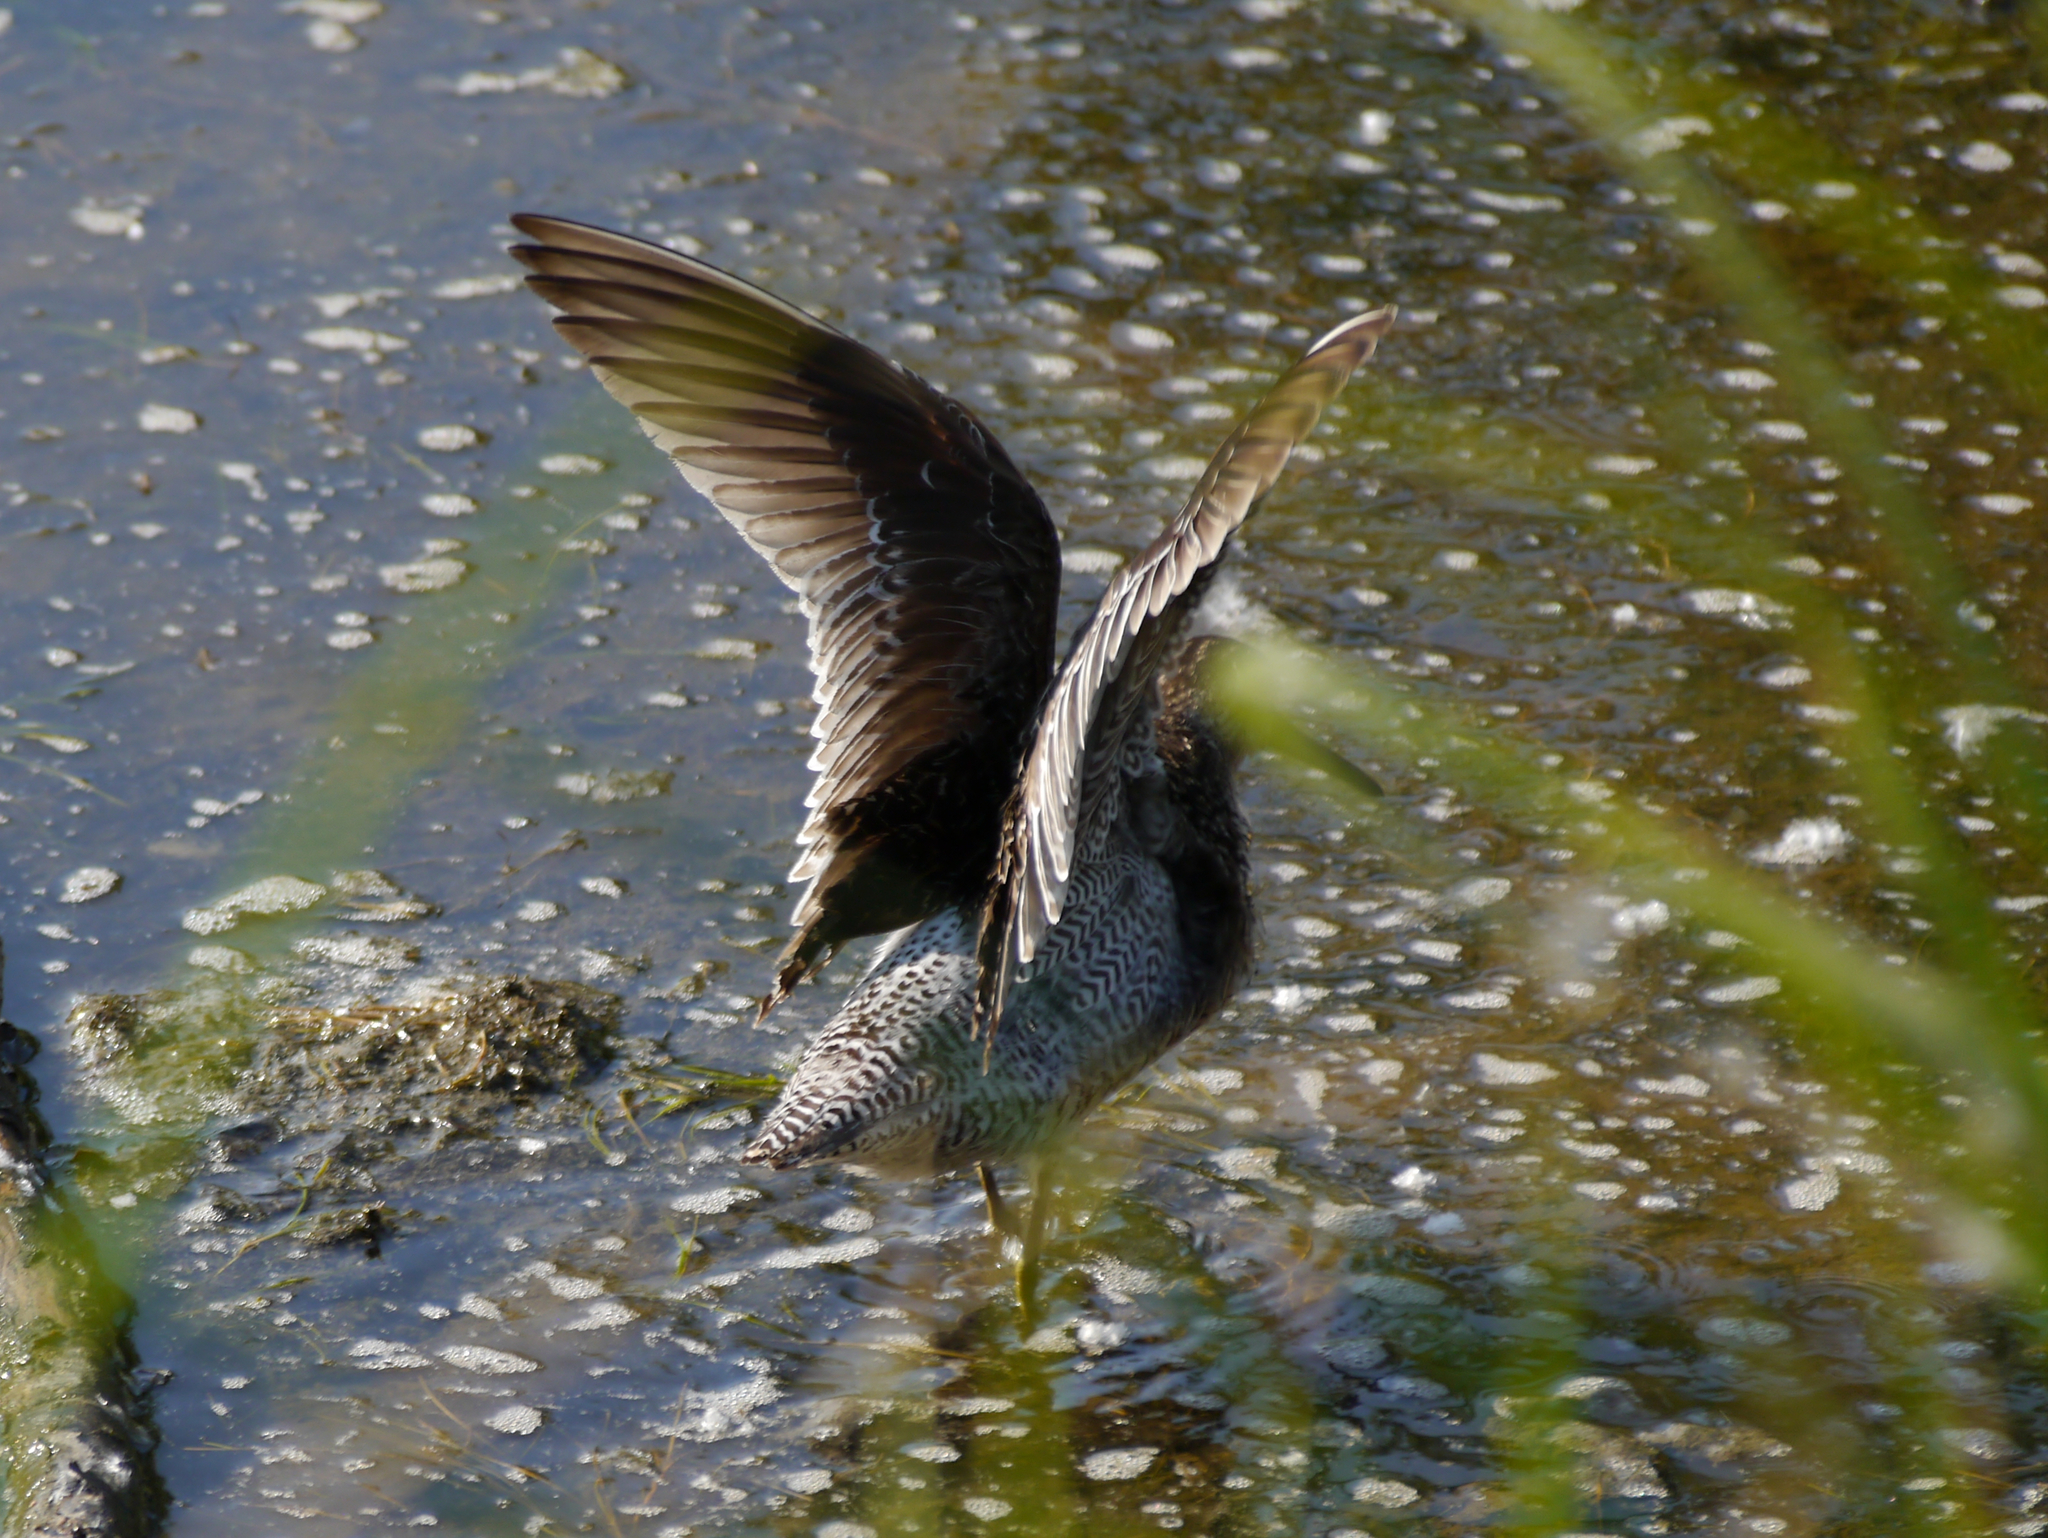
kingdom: Animalia
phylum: Chordata
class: Aves
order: Charadriiformes
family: Scolopacidae
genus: Limnodromus
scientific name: Limnodromus griseus
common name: Short-billed dowitcher
